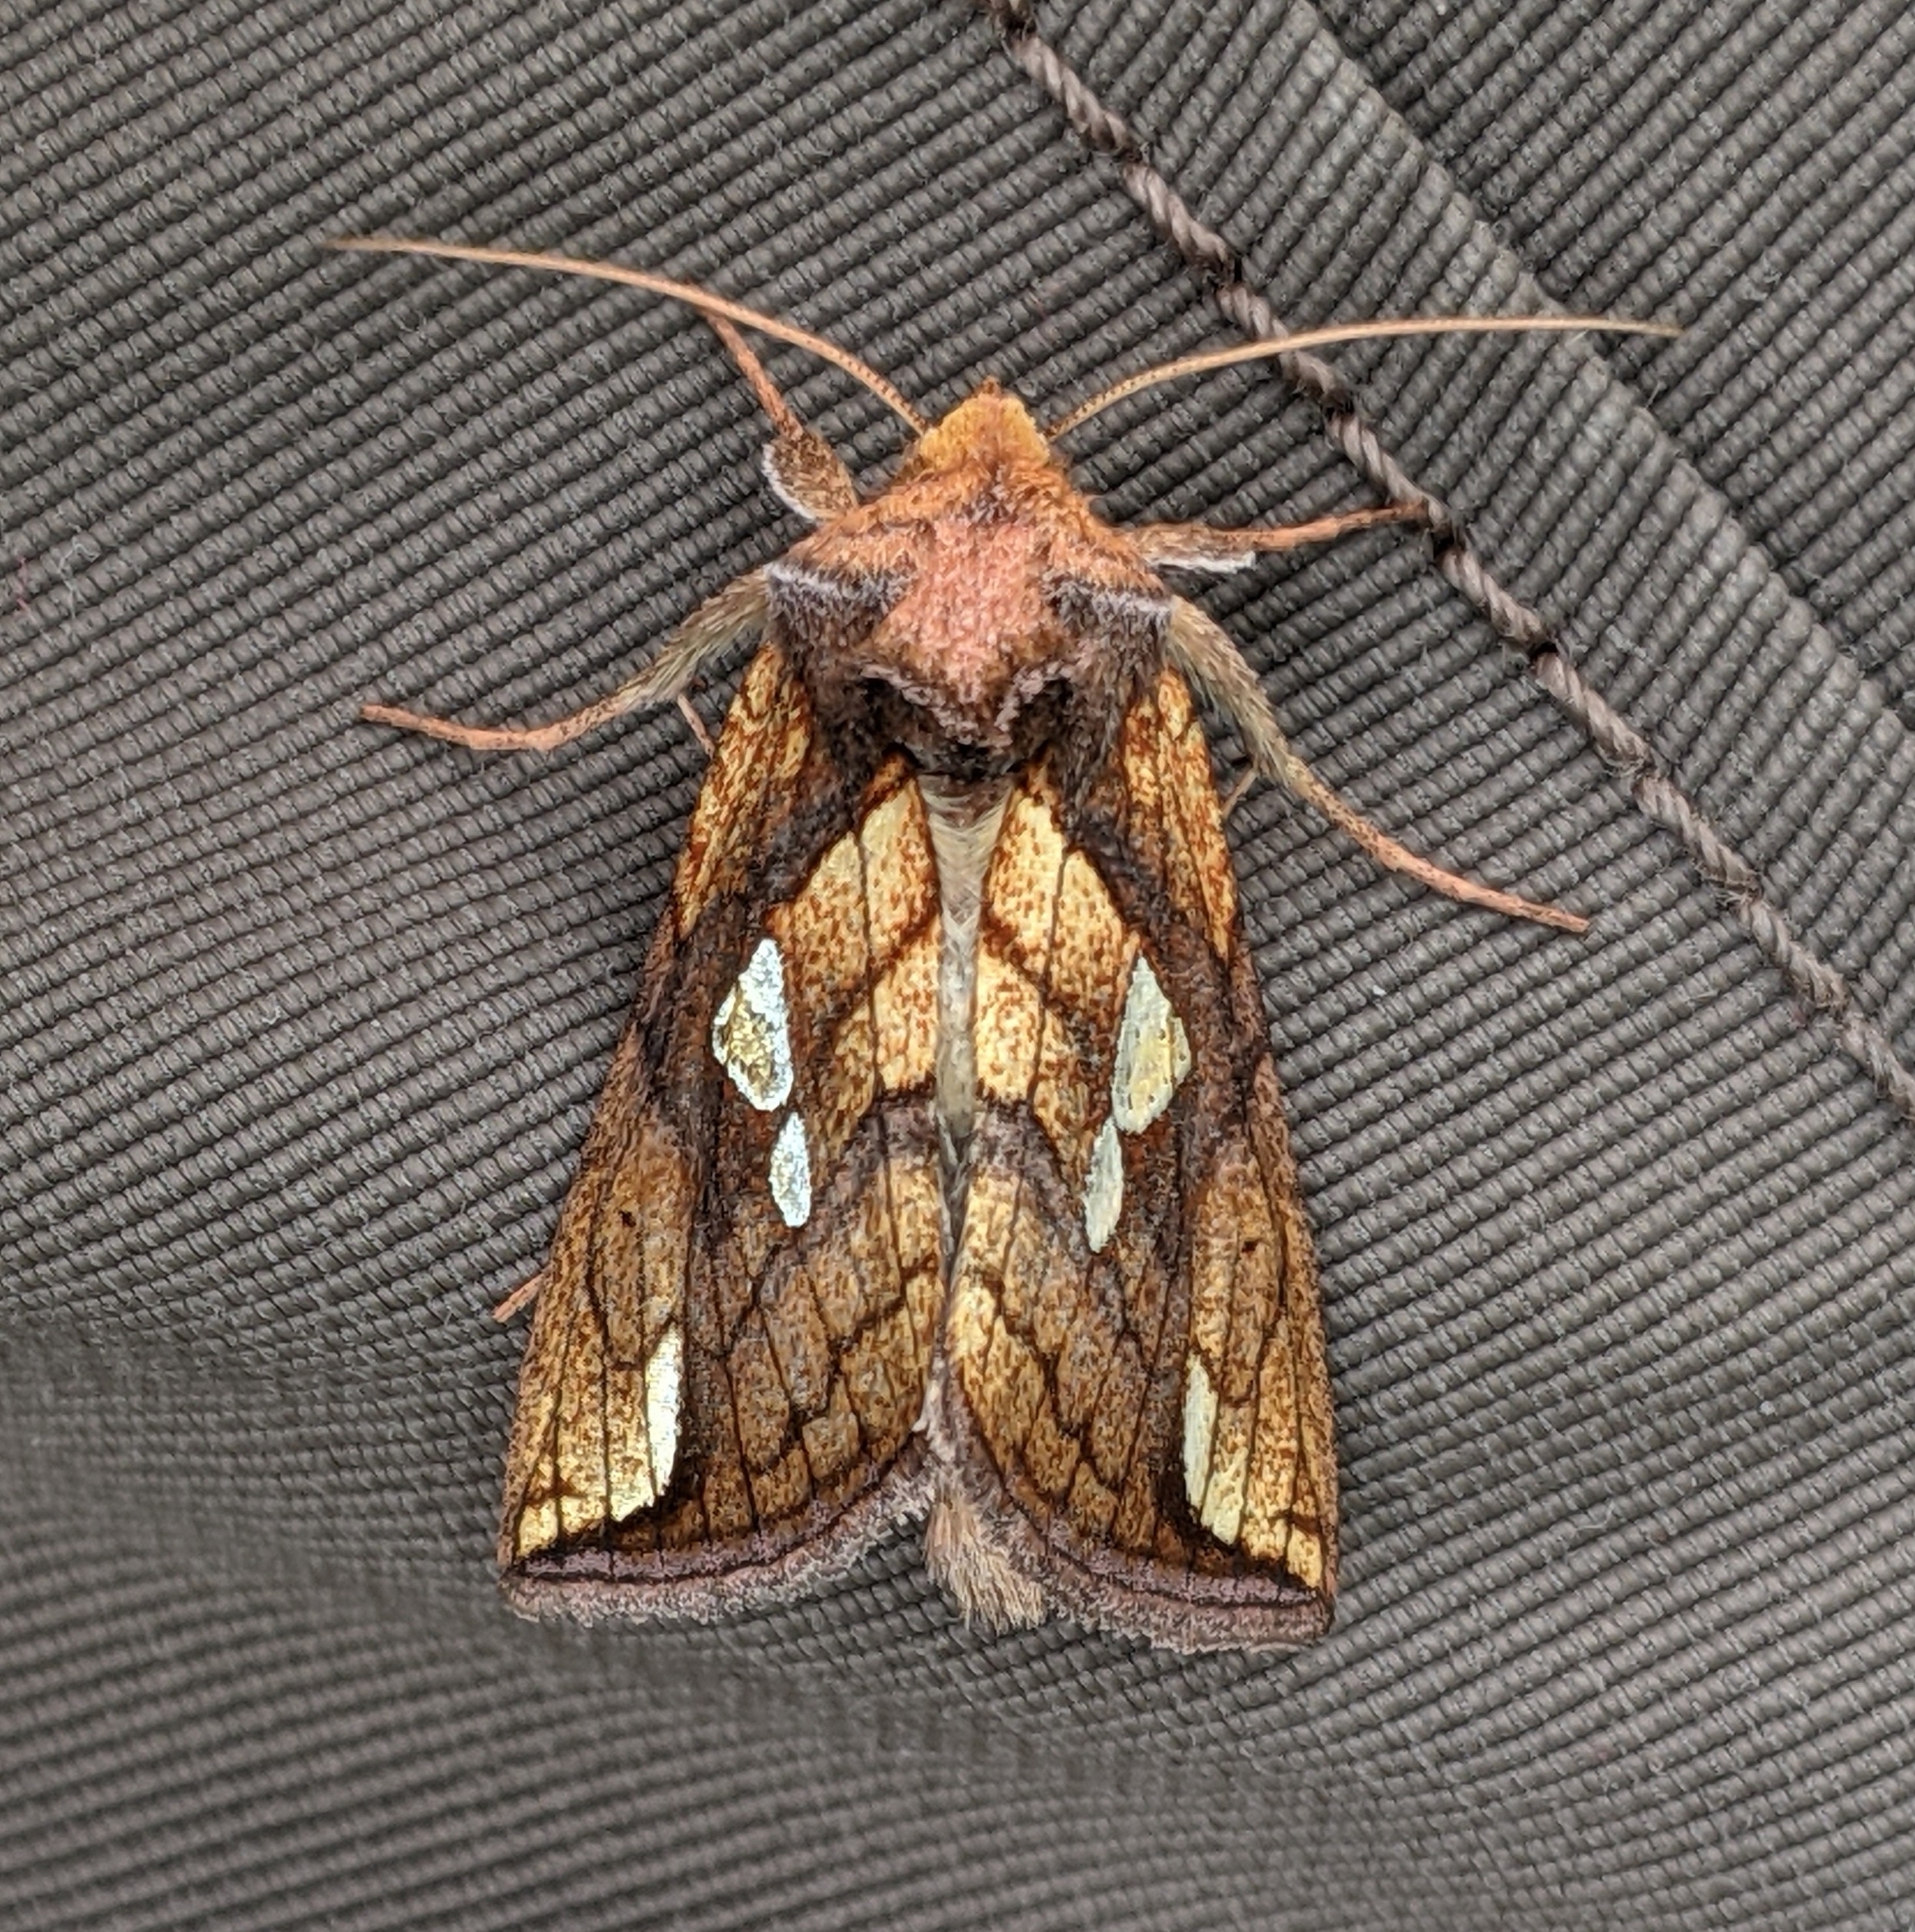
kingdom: Animalia
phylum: Arthropoda
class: Insecta
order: Lepidoptera
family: Noctuidae
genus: Plusia
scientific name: Plusia putnami
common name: Lempke's gold spot
